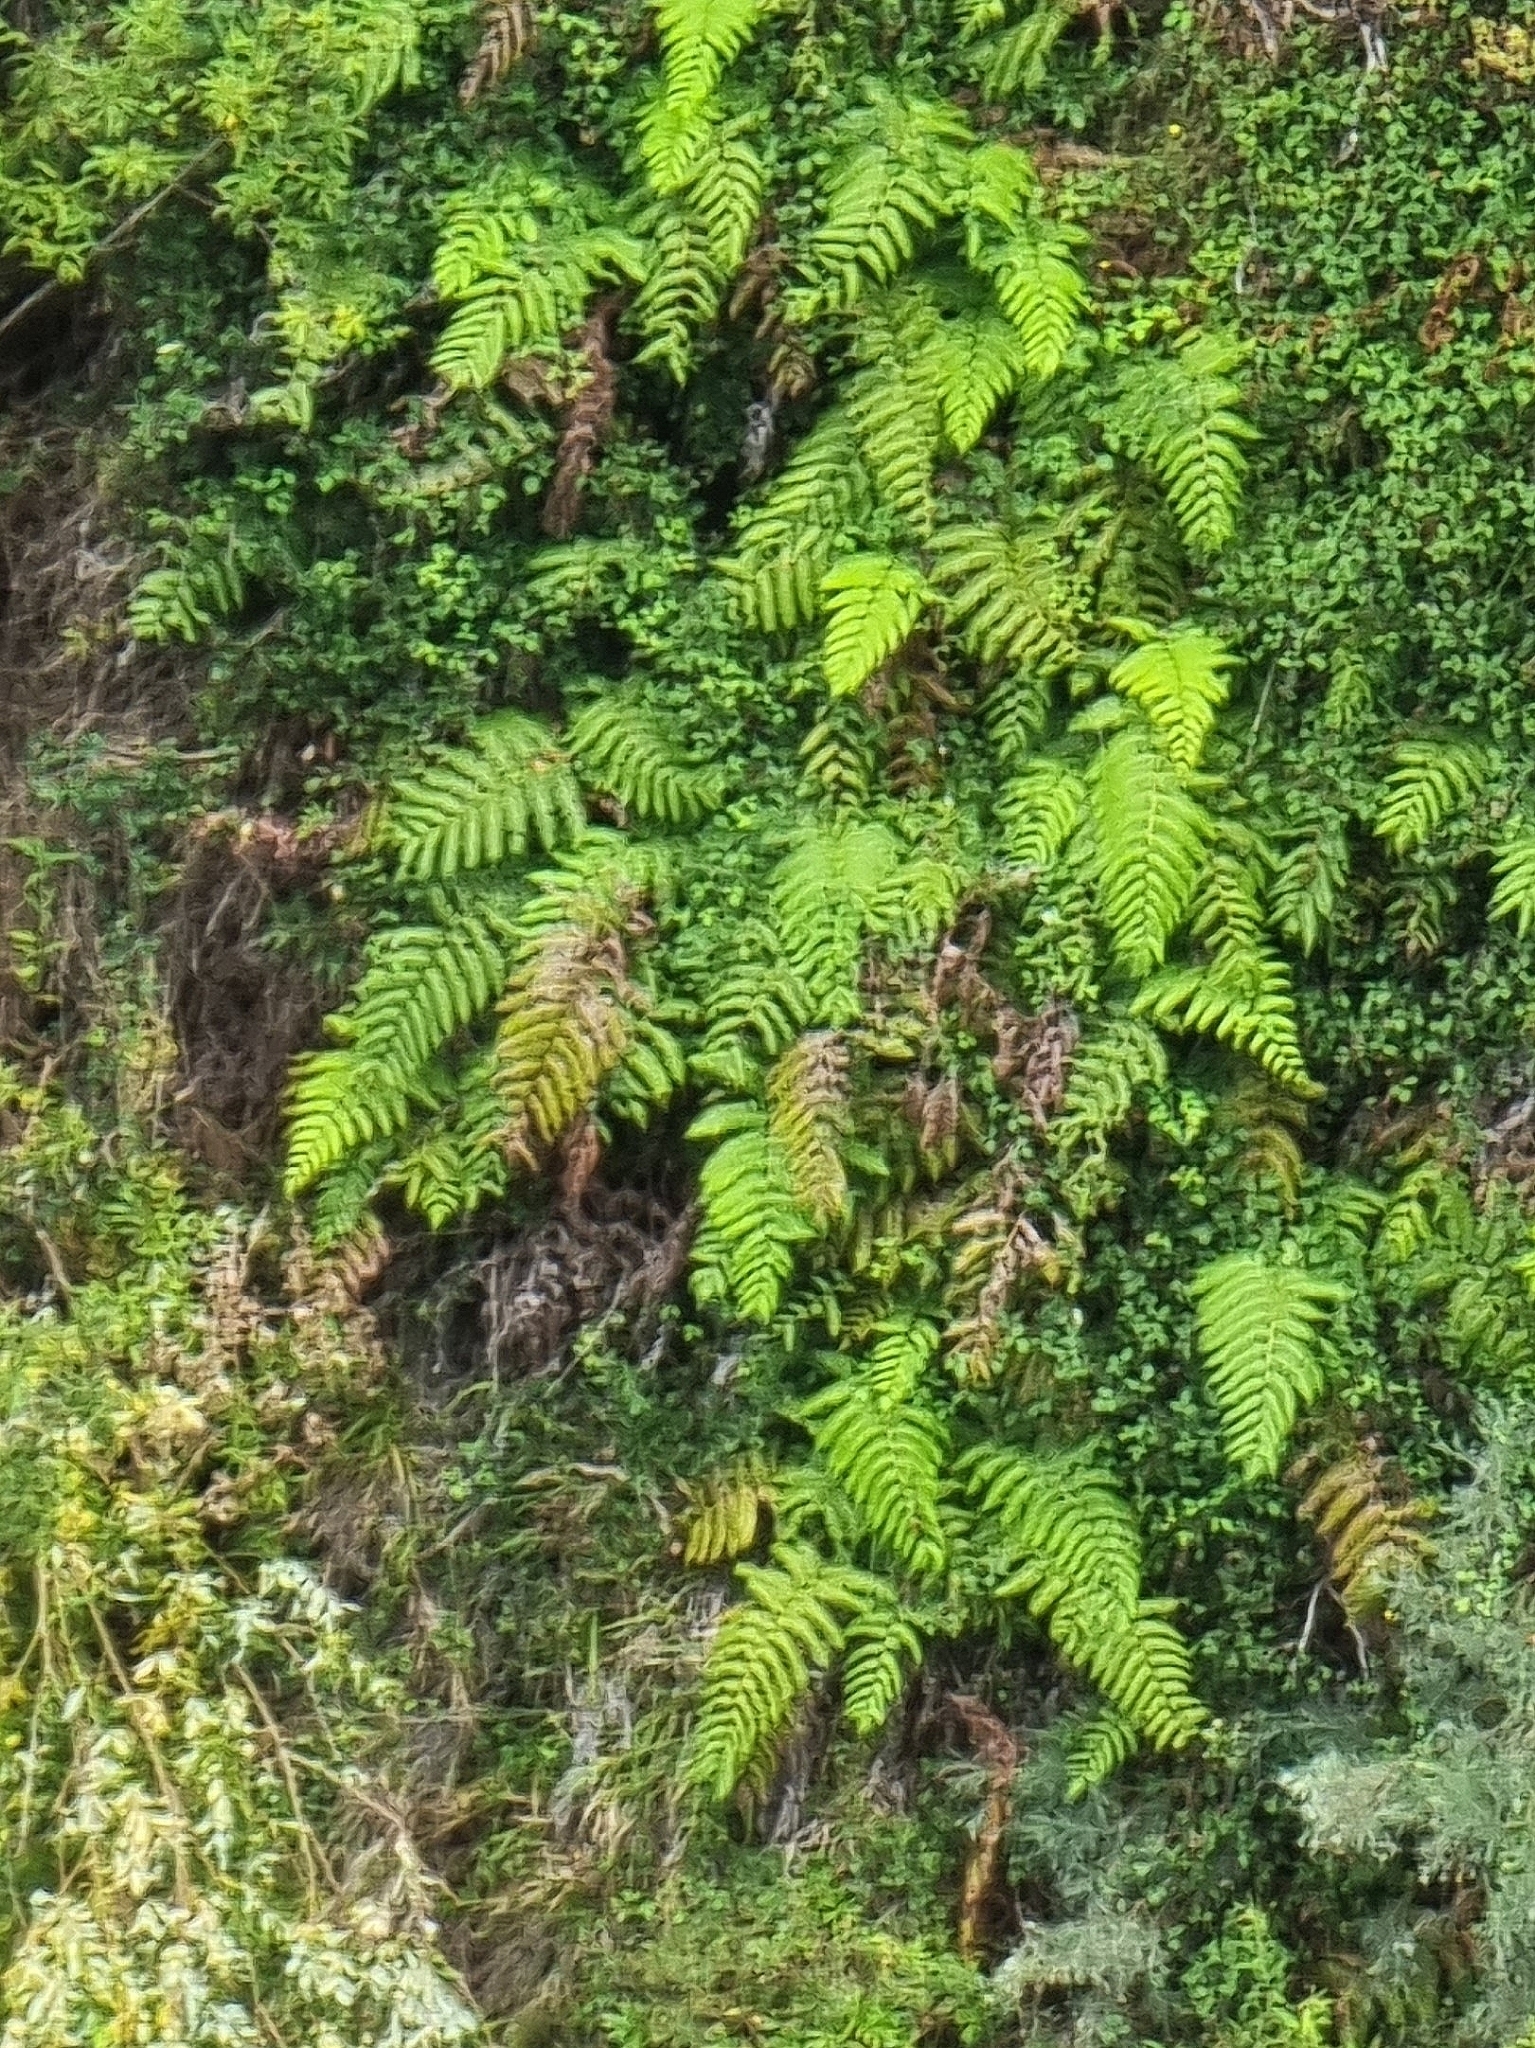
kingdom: Plantae
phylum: Tracheophyta
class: Polypodiopsida
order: Polypodiales
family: Blechnaceae
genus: Woodwardia
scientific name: Woodwardia radicans
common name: Rooting chainfern
